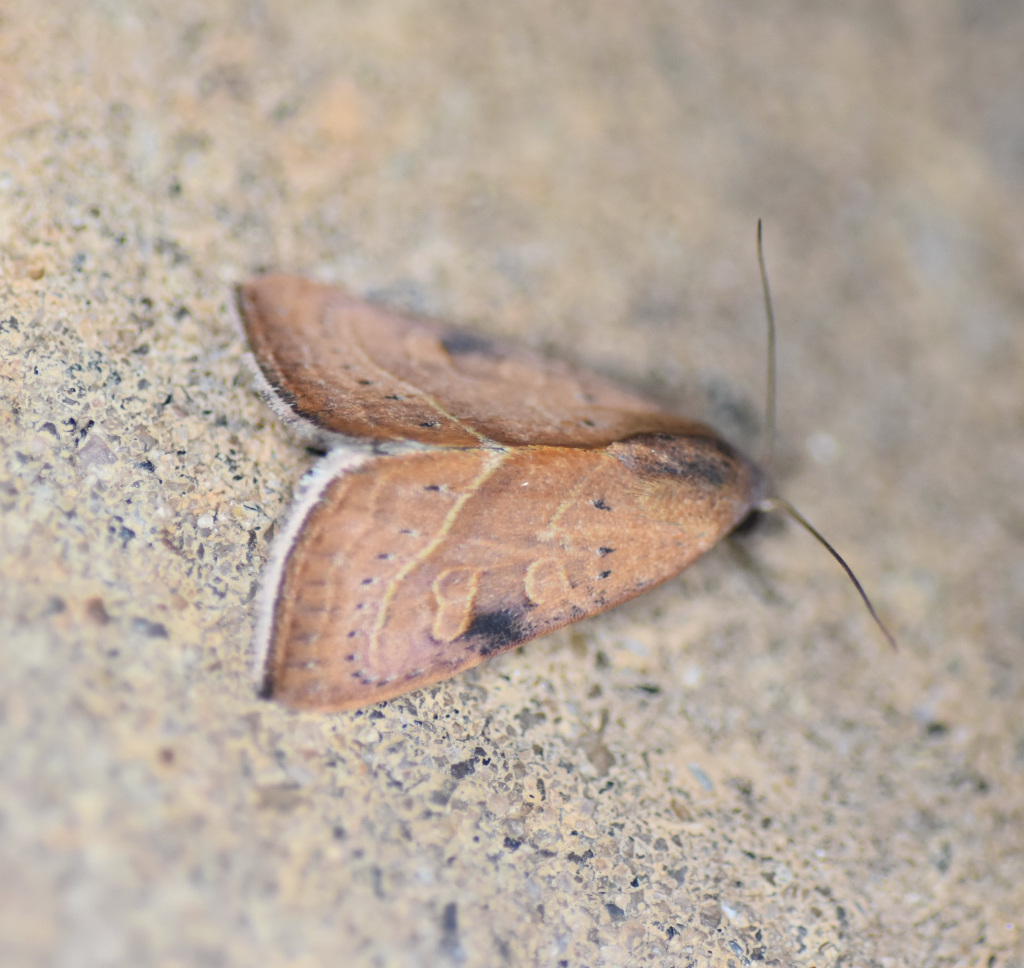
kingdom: Animalia
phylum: Arthropoda
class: Insecta
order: Lepidoptera
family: Noctuidae
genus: Galgula
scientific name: Galgula partita
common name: Wedgeling
